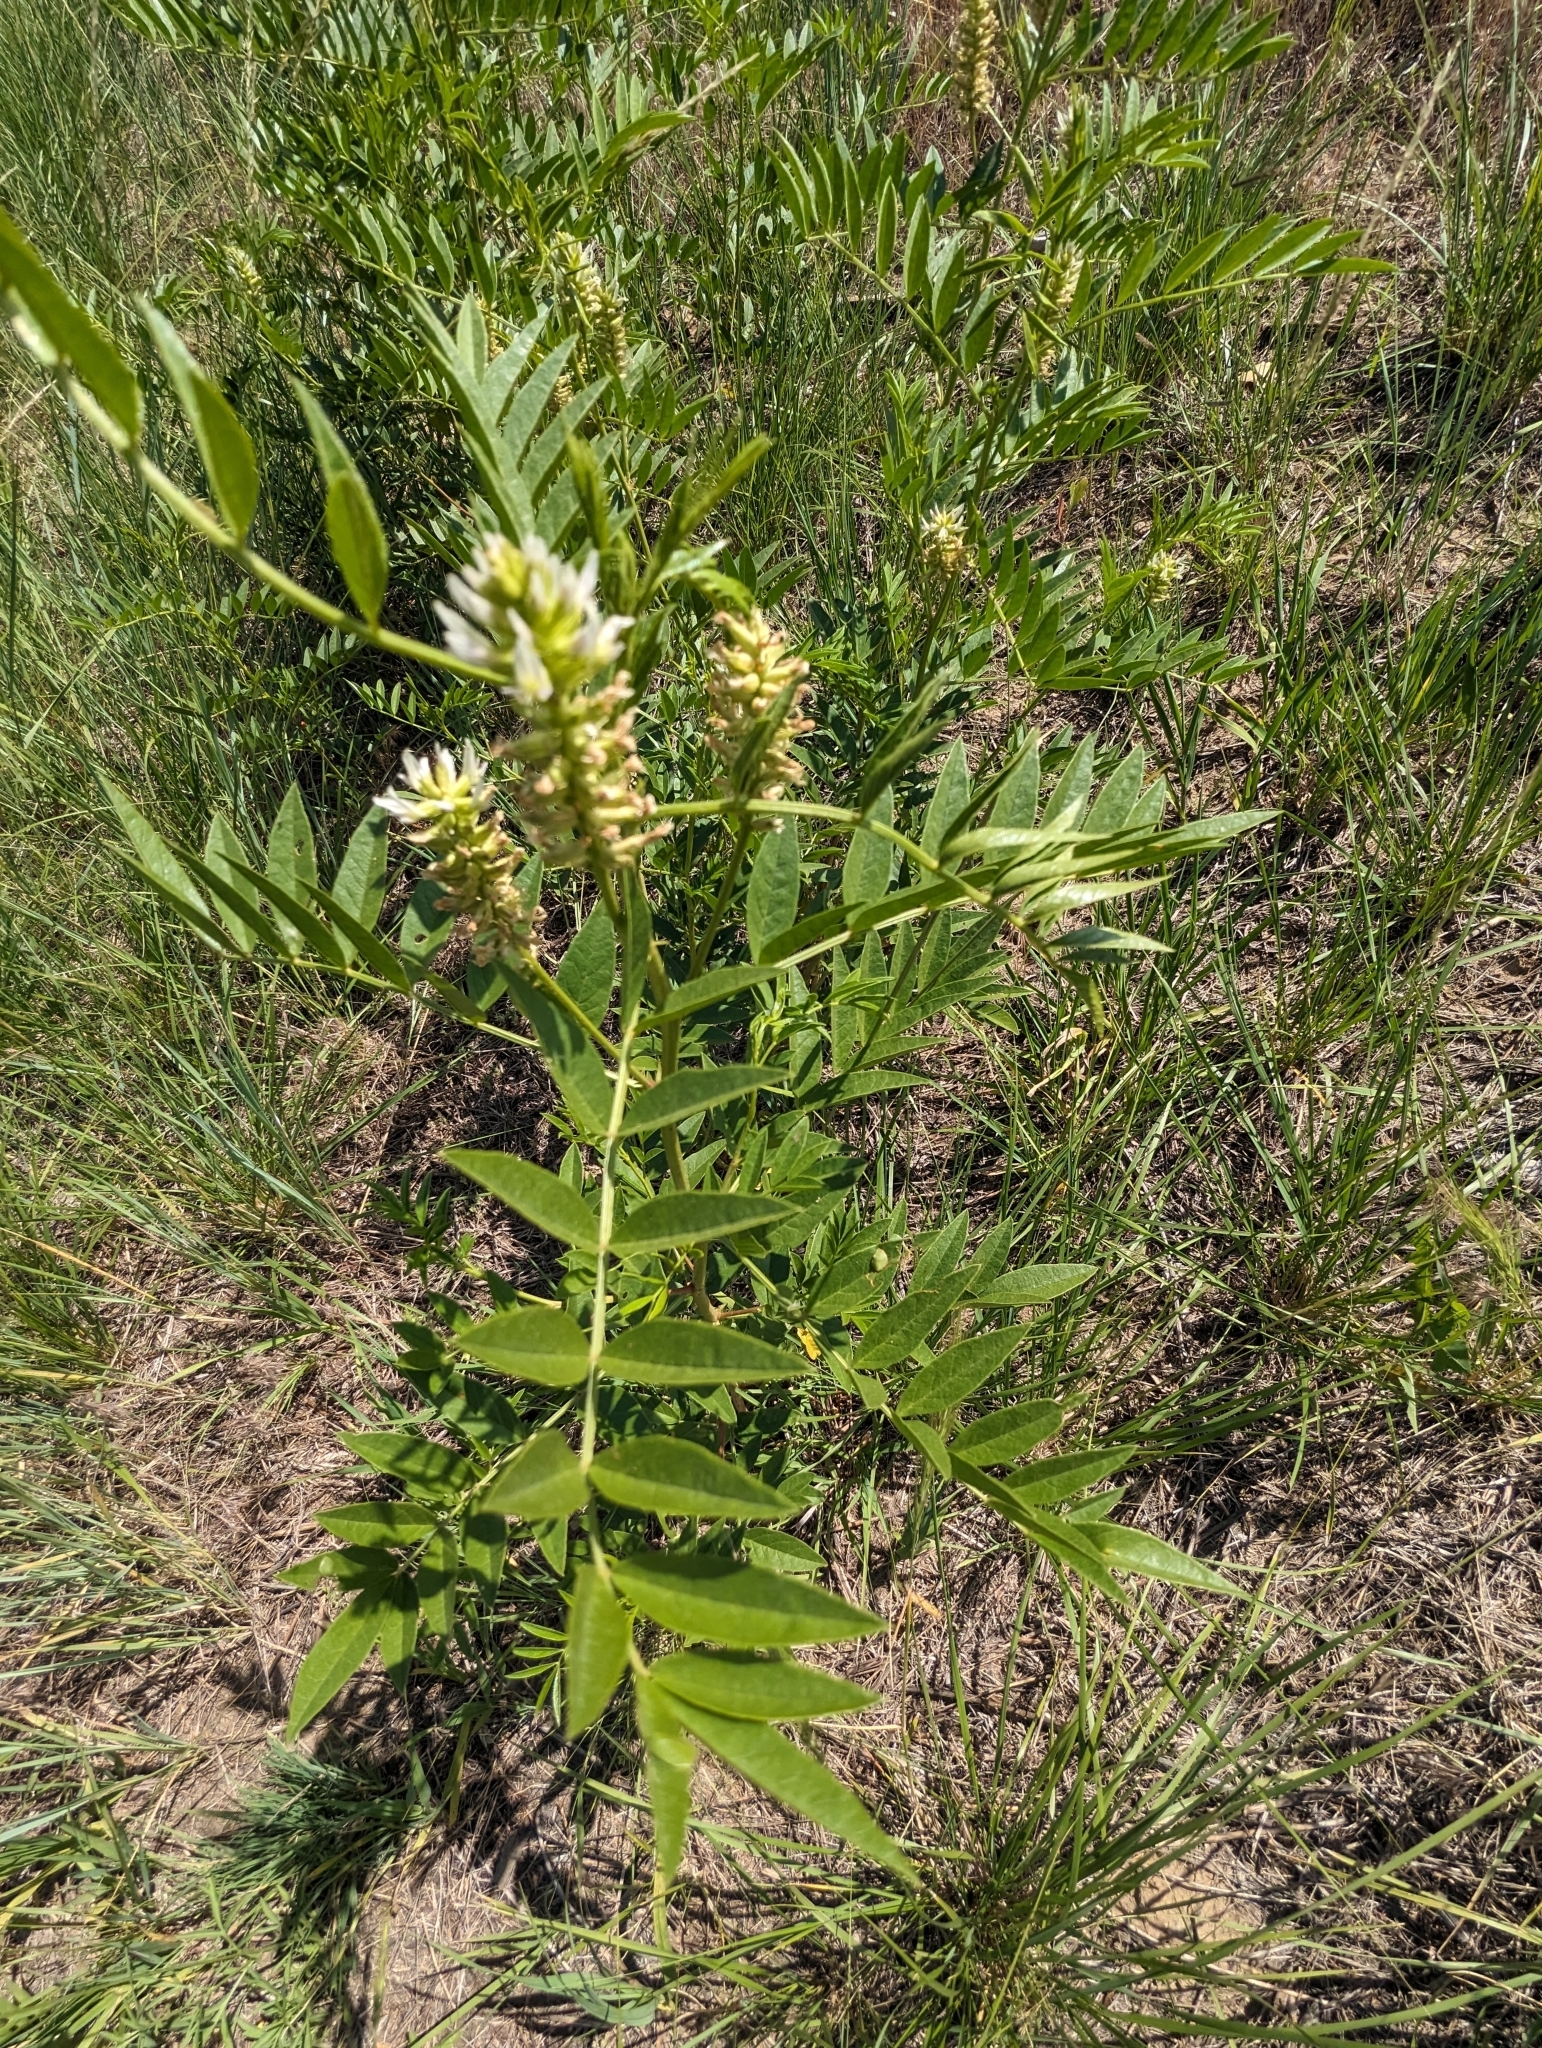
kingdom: Plantae
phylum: Tracheophyta
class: Magnoliopsida
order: Fabales
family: Fabaceae
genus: Glycyrrhiza
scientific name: Glycyrrhiza lepidota
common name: American liquorice
